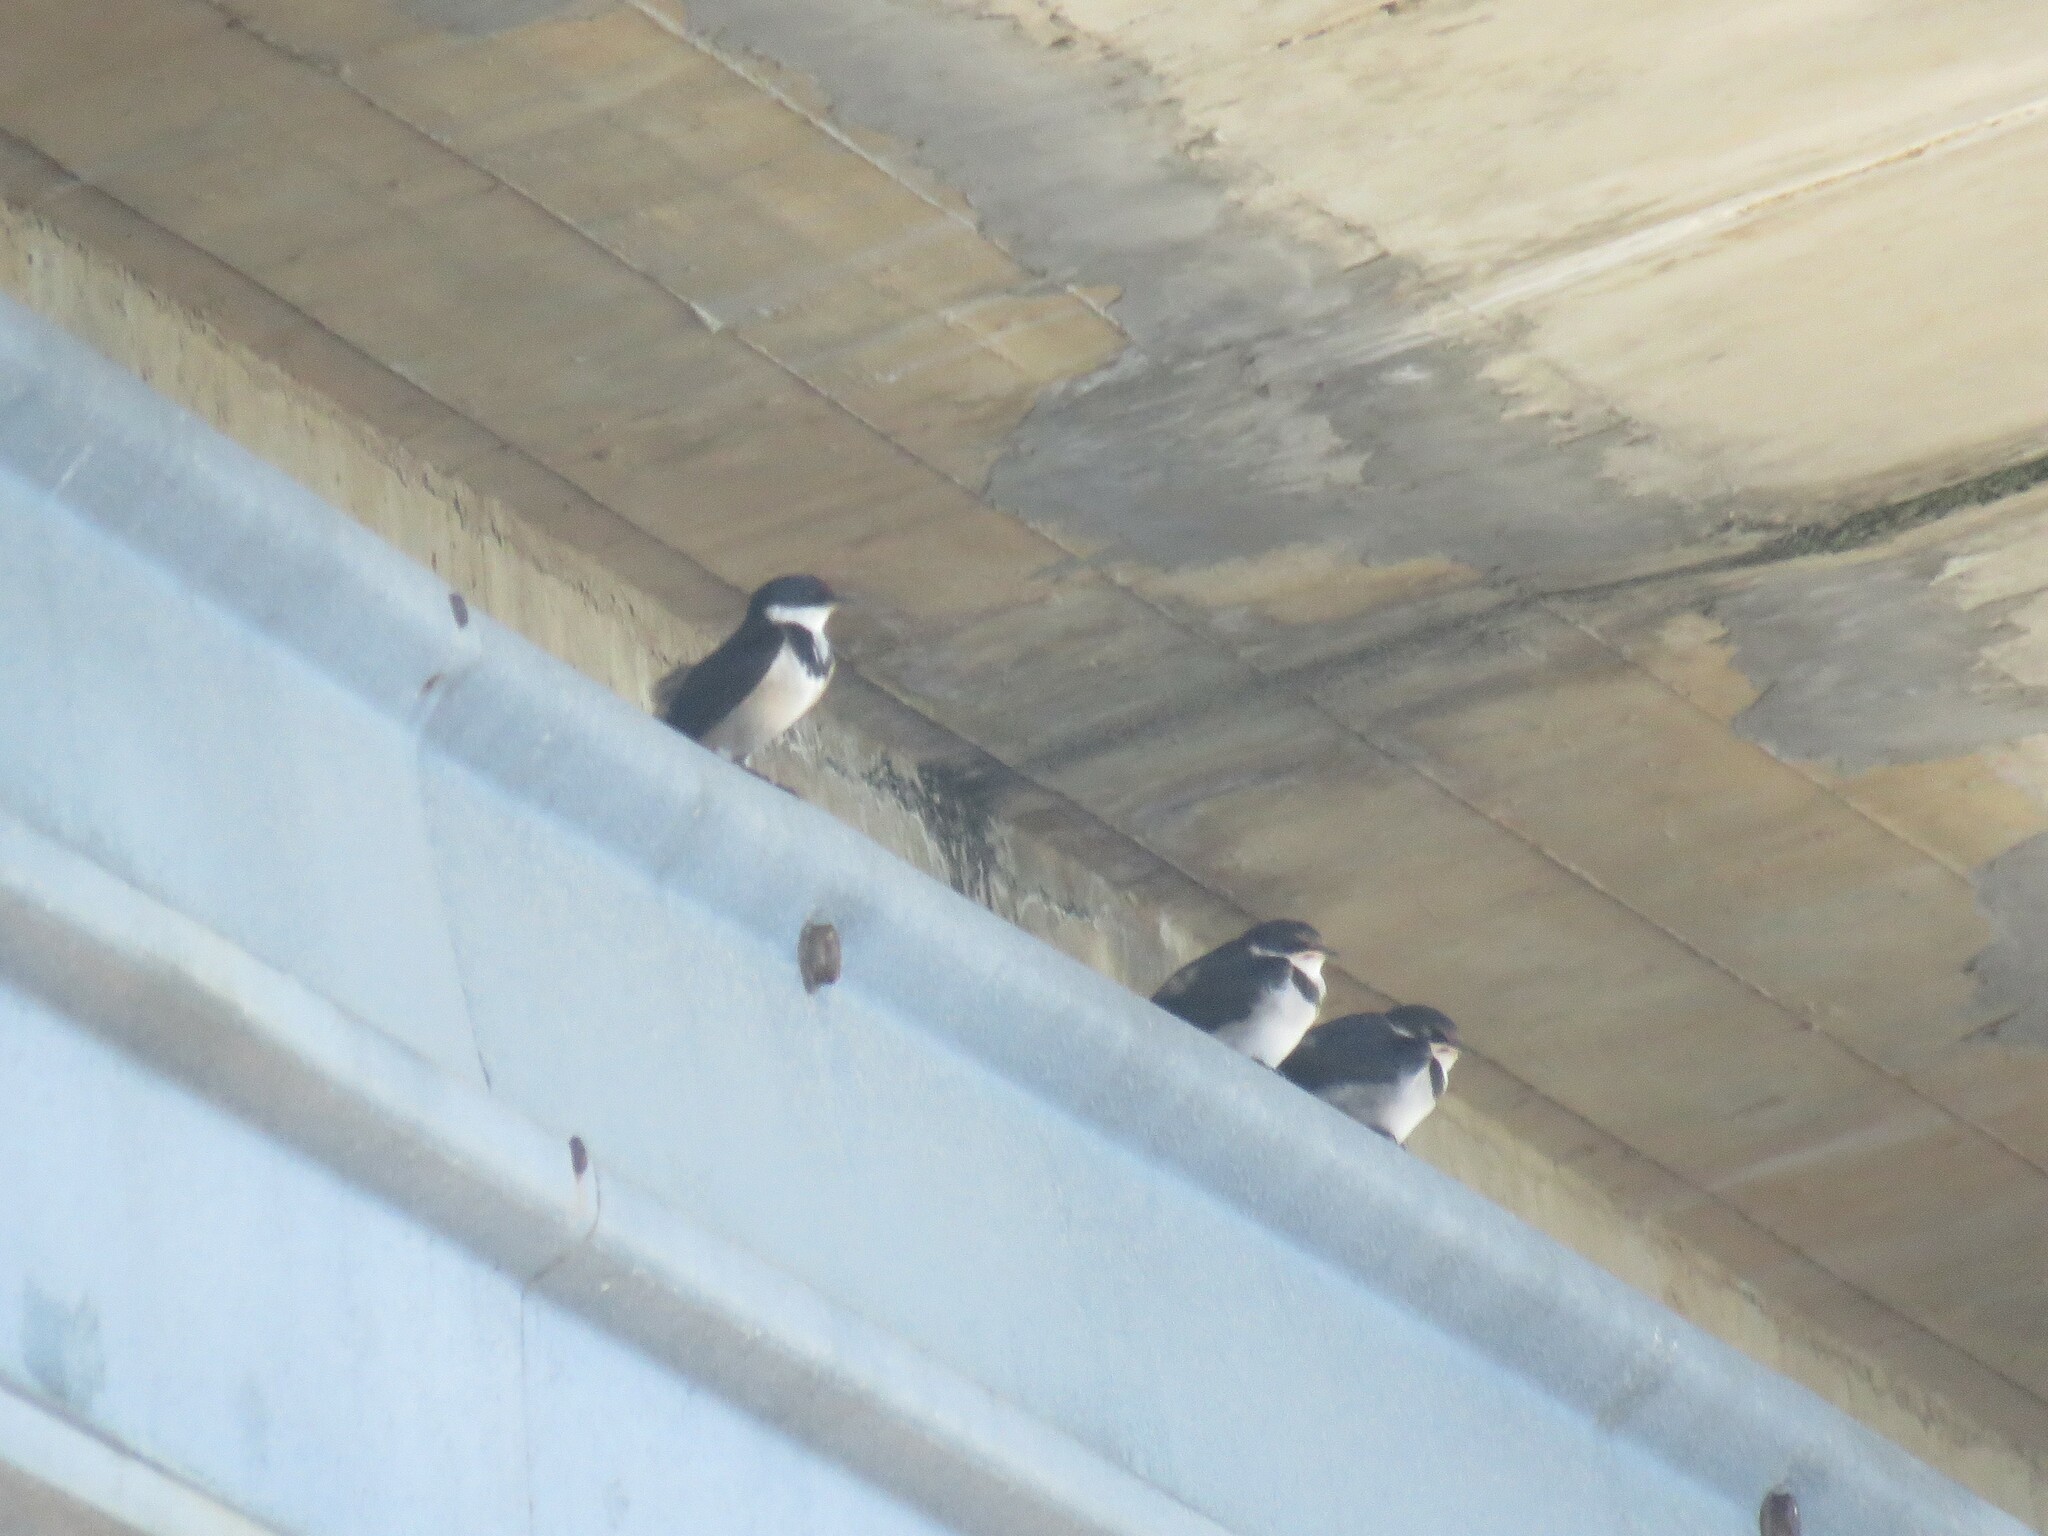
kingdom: Animalia
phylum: Chordata
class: Aves
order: Passeriformes
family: Hirundinidae
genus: Hirundo
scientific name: Hirundo albigularis
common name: White-throated swallow
